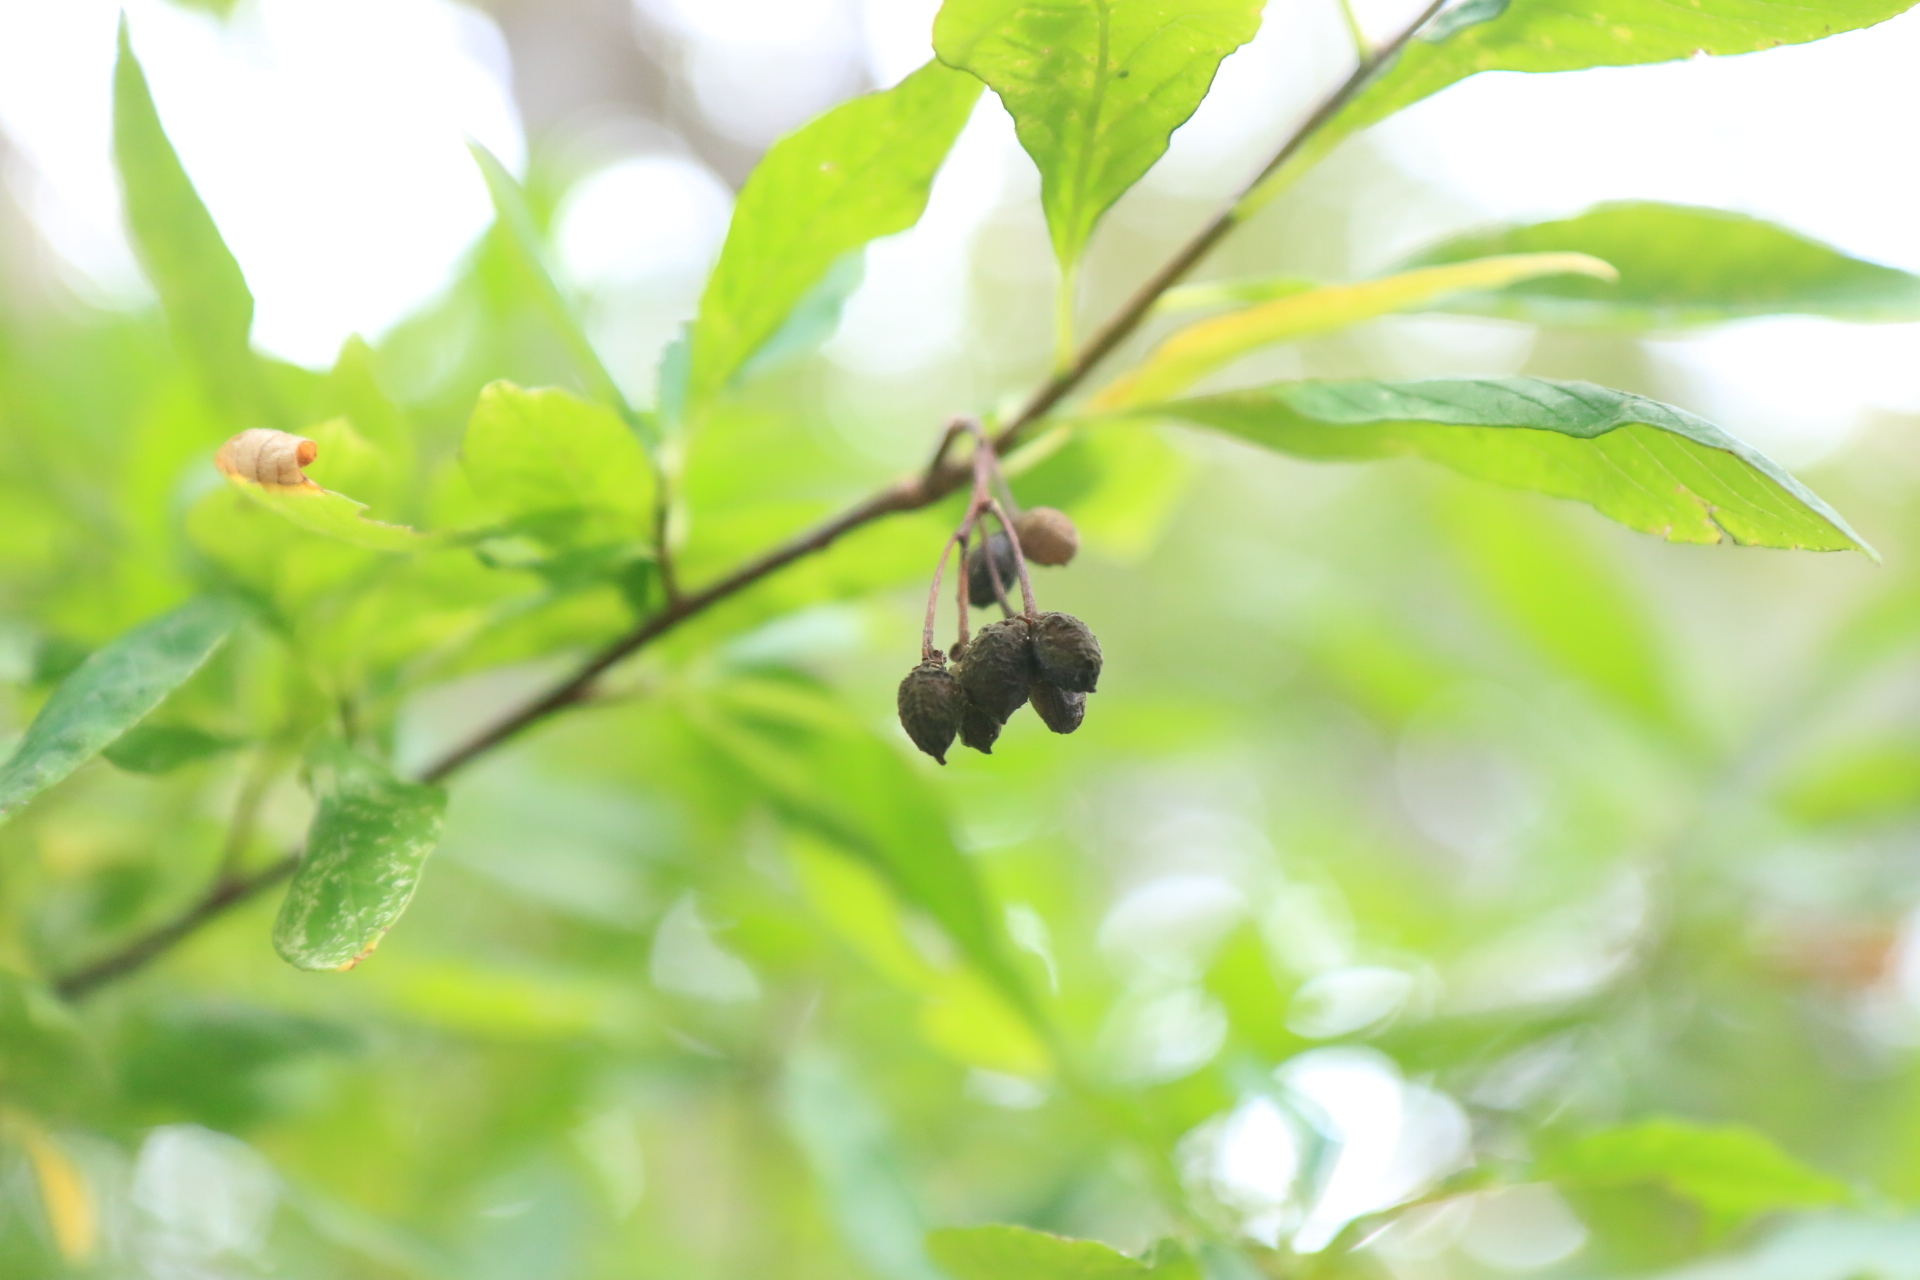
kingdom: Plantae
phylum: Tracheophyta
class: Magnoliopsida
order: Rosales
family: Rosaceae
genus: Oemleria
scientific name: Oemleria cerasiformis
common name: Osoberry
